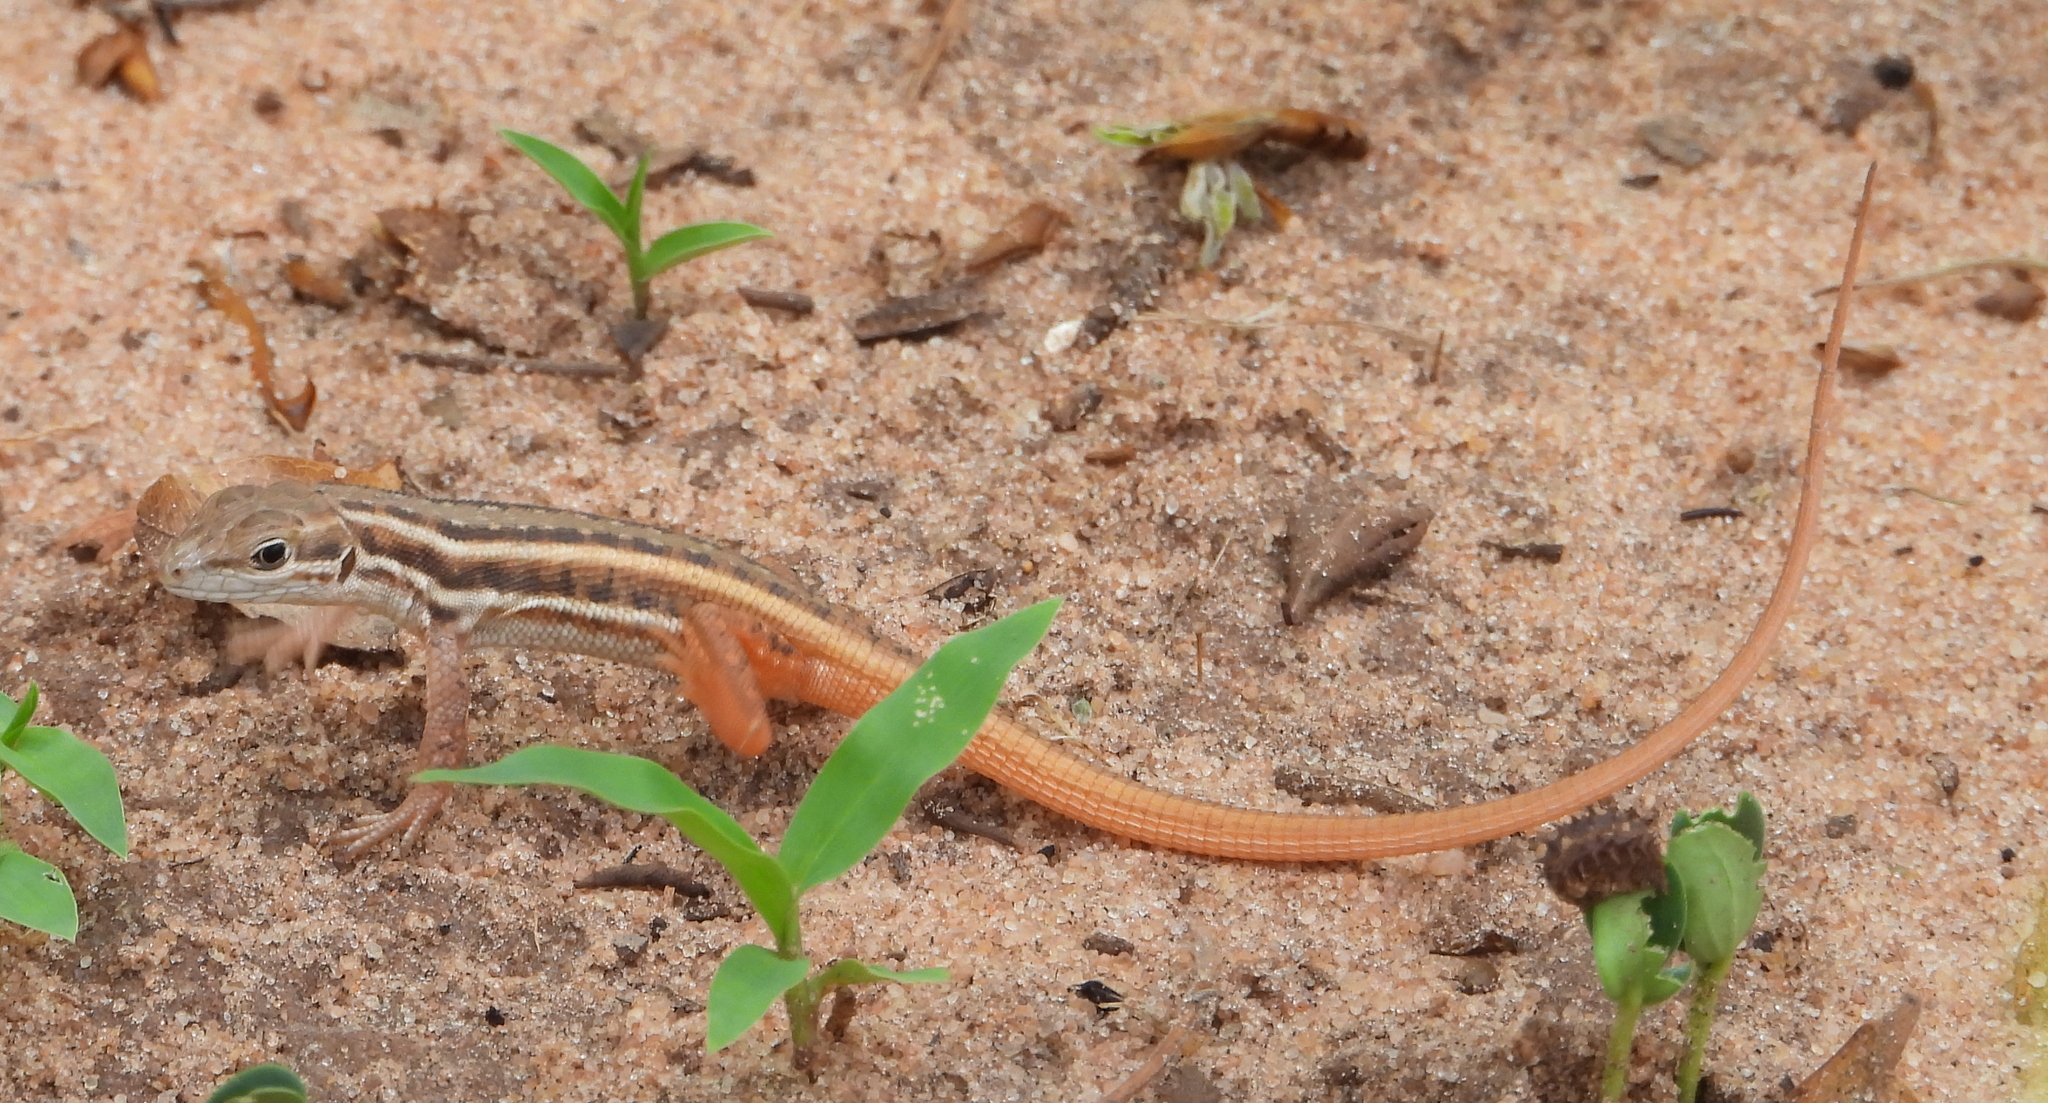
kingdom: Animalia
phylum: Chordata
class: Squamata
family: Lacertidae
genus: Meroles
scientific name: Meroles squamulosus
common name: Common desert lizard
